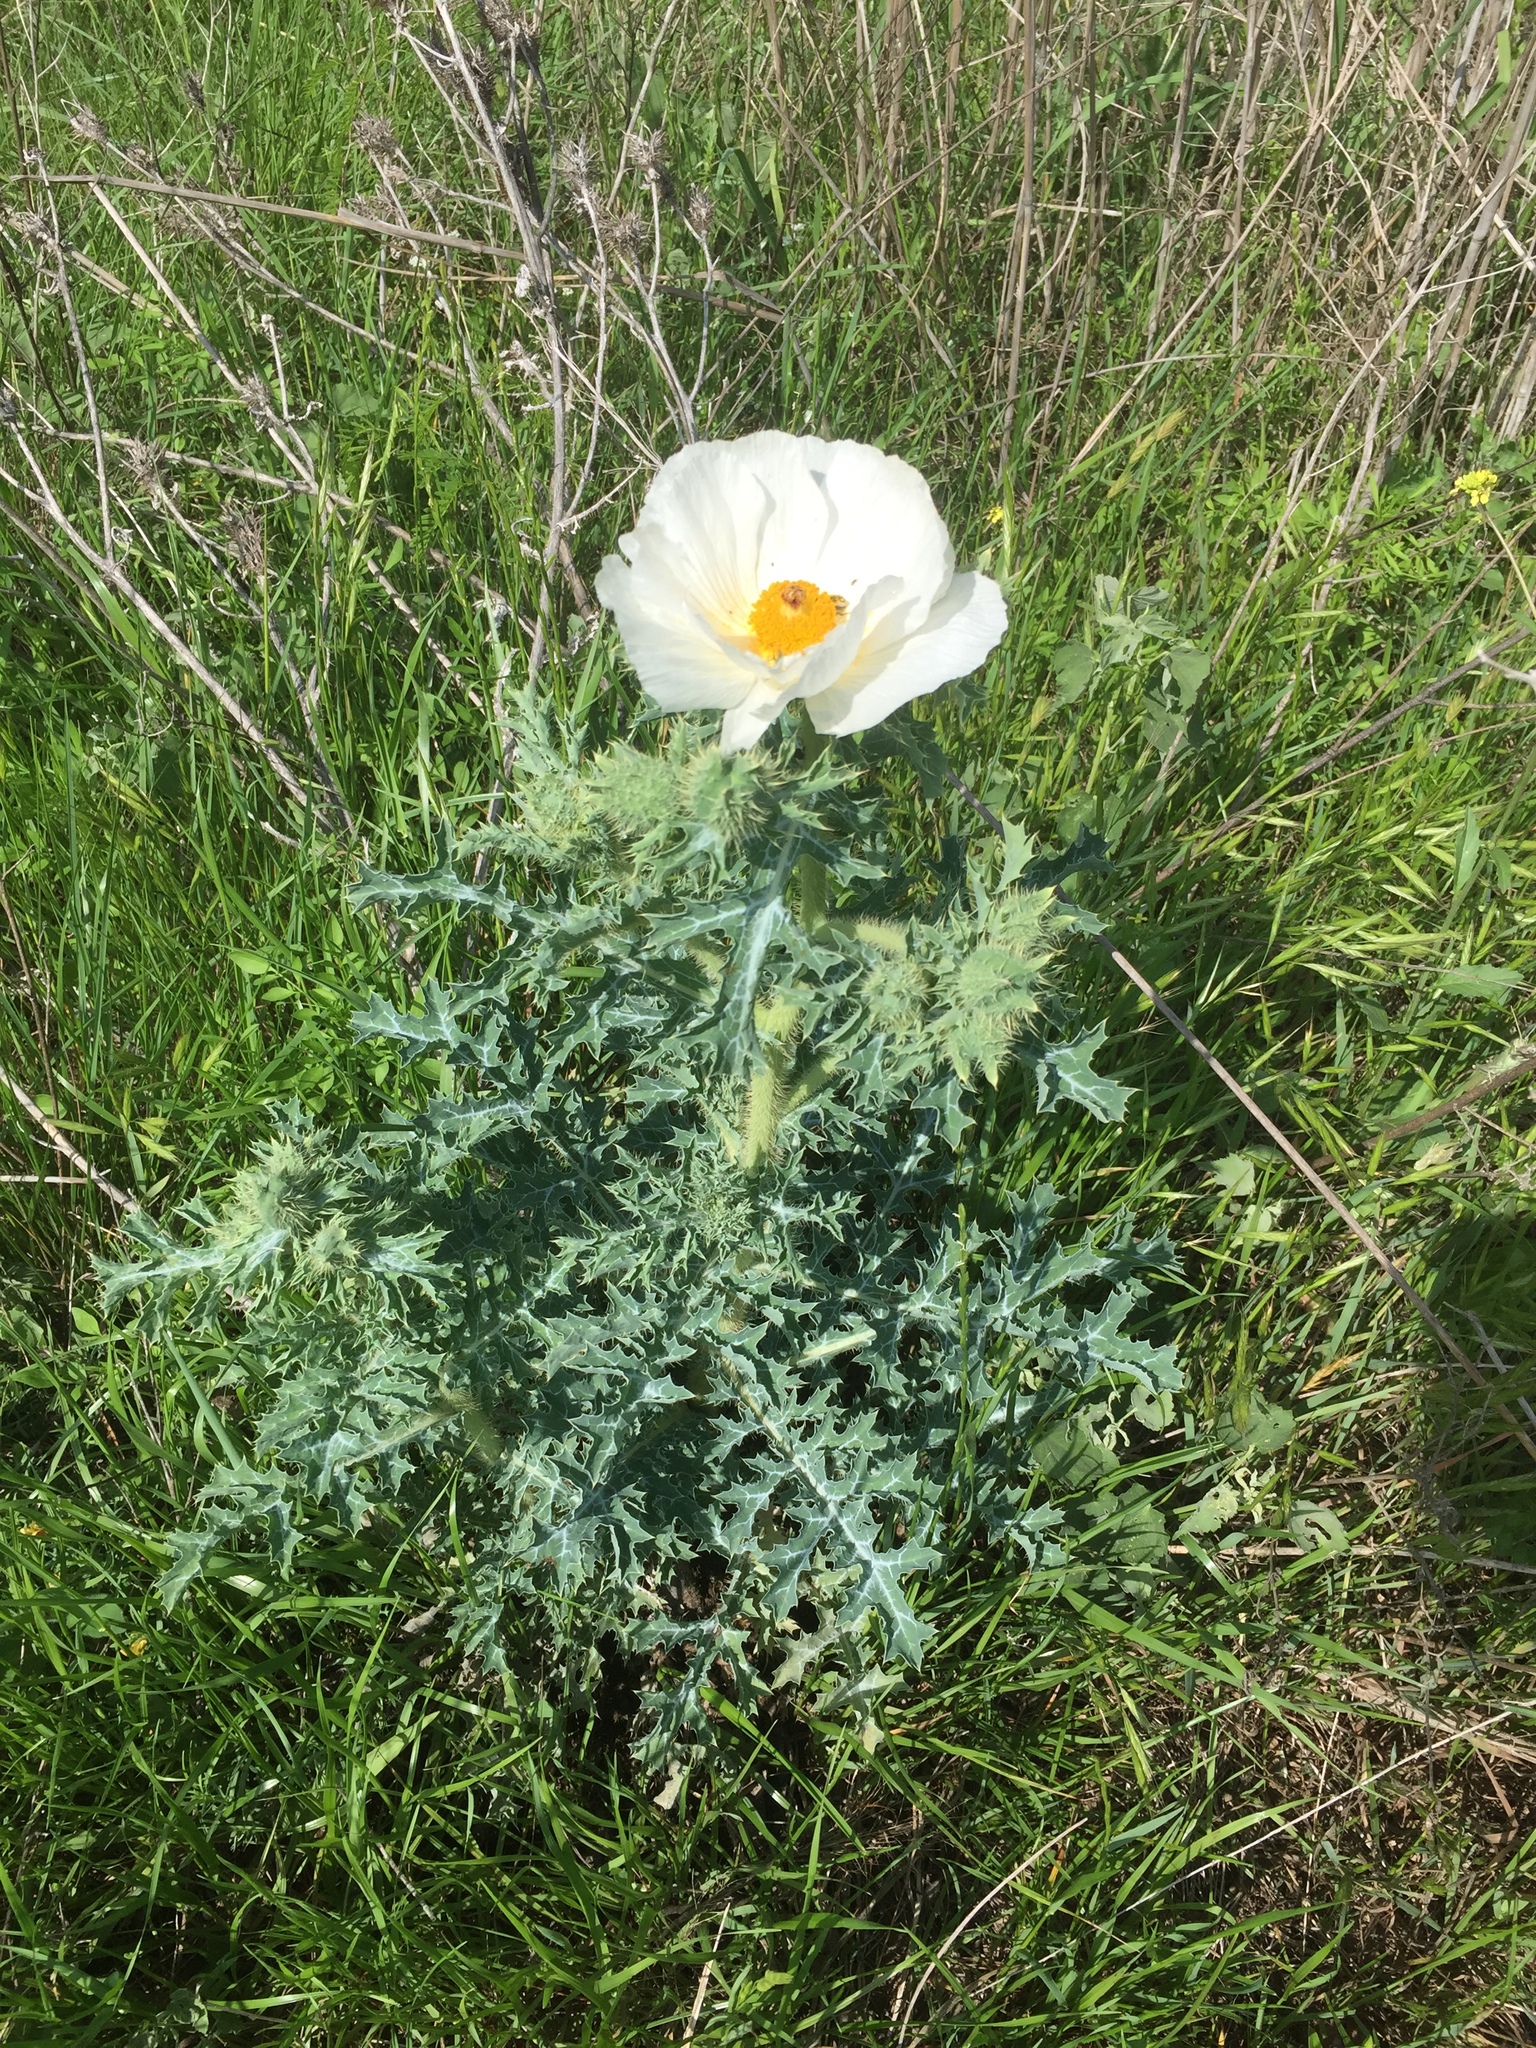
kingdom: Plantae
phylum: Tracheophyta
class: Magnoliopsida
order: Ranunculales
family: Papaveraceae
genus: Argemone
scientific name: Argemone albiflora
